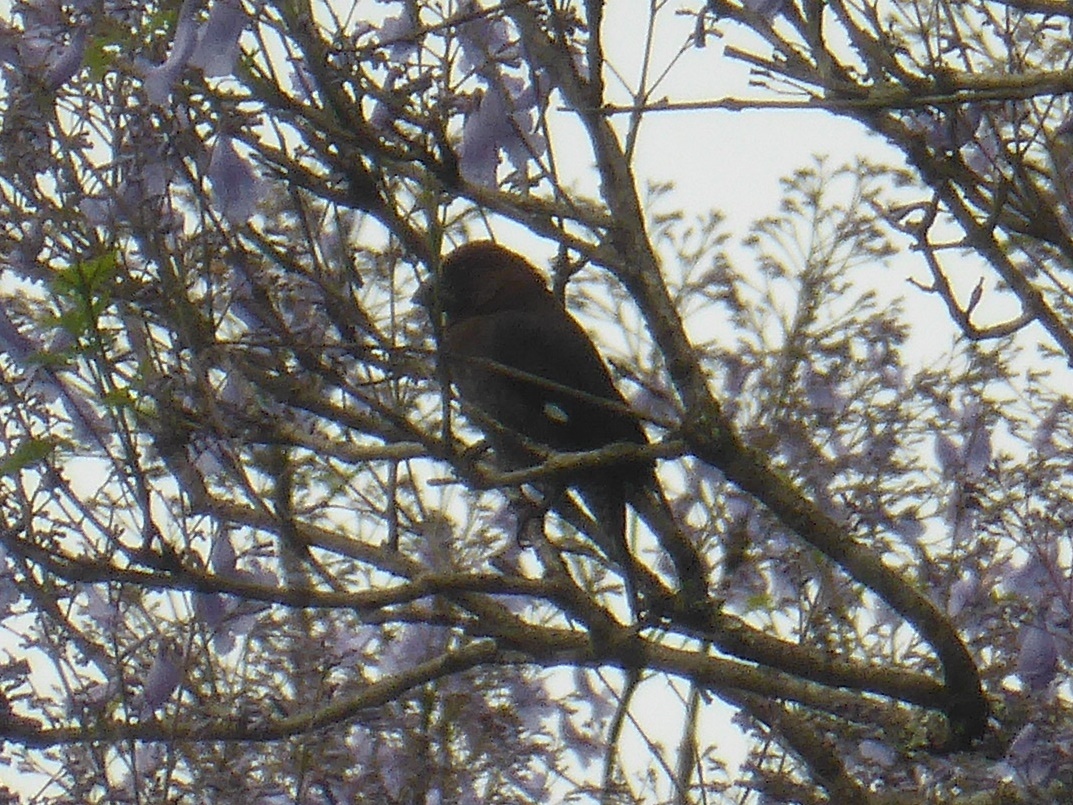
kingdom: Animalia
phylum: Chordata
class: Aves
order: Passeriformes
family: Ploceidae
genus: Amblyospiza
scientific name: Amblyospiza albifrons
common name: Thick-billed weaver
